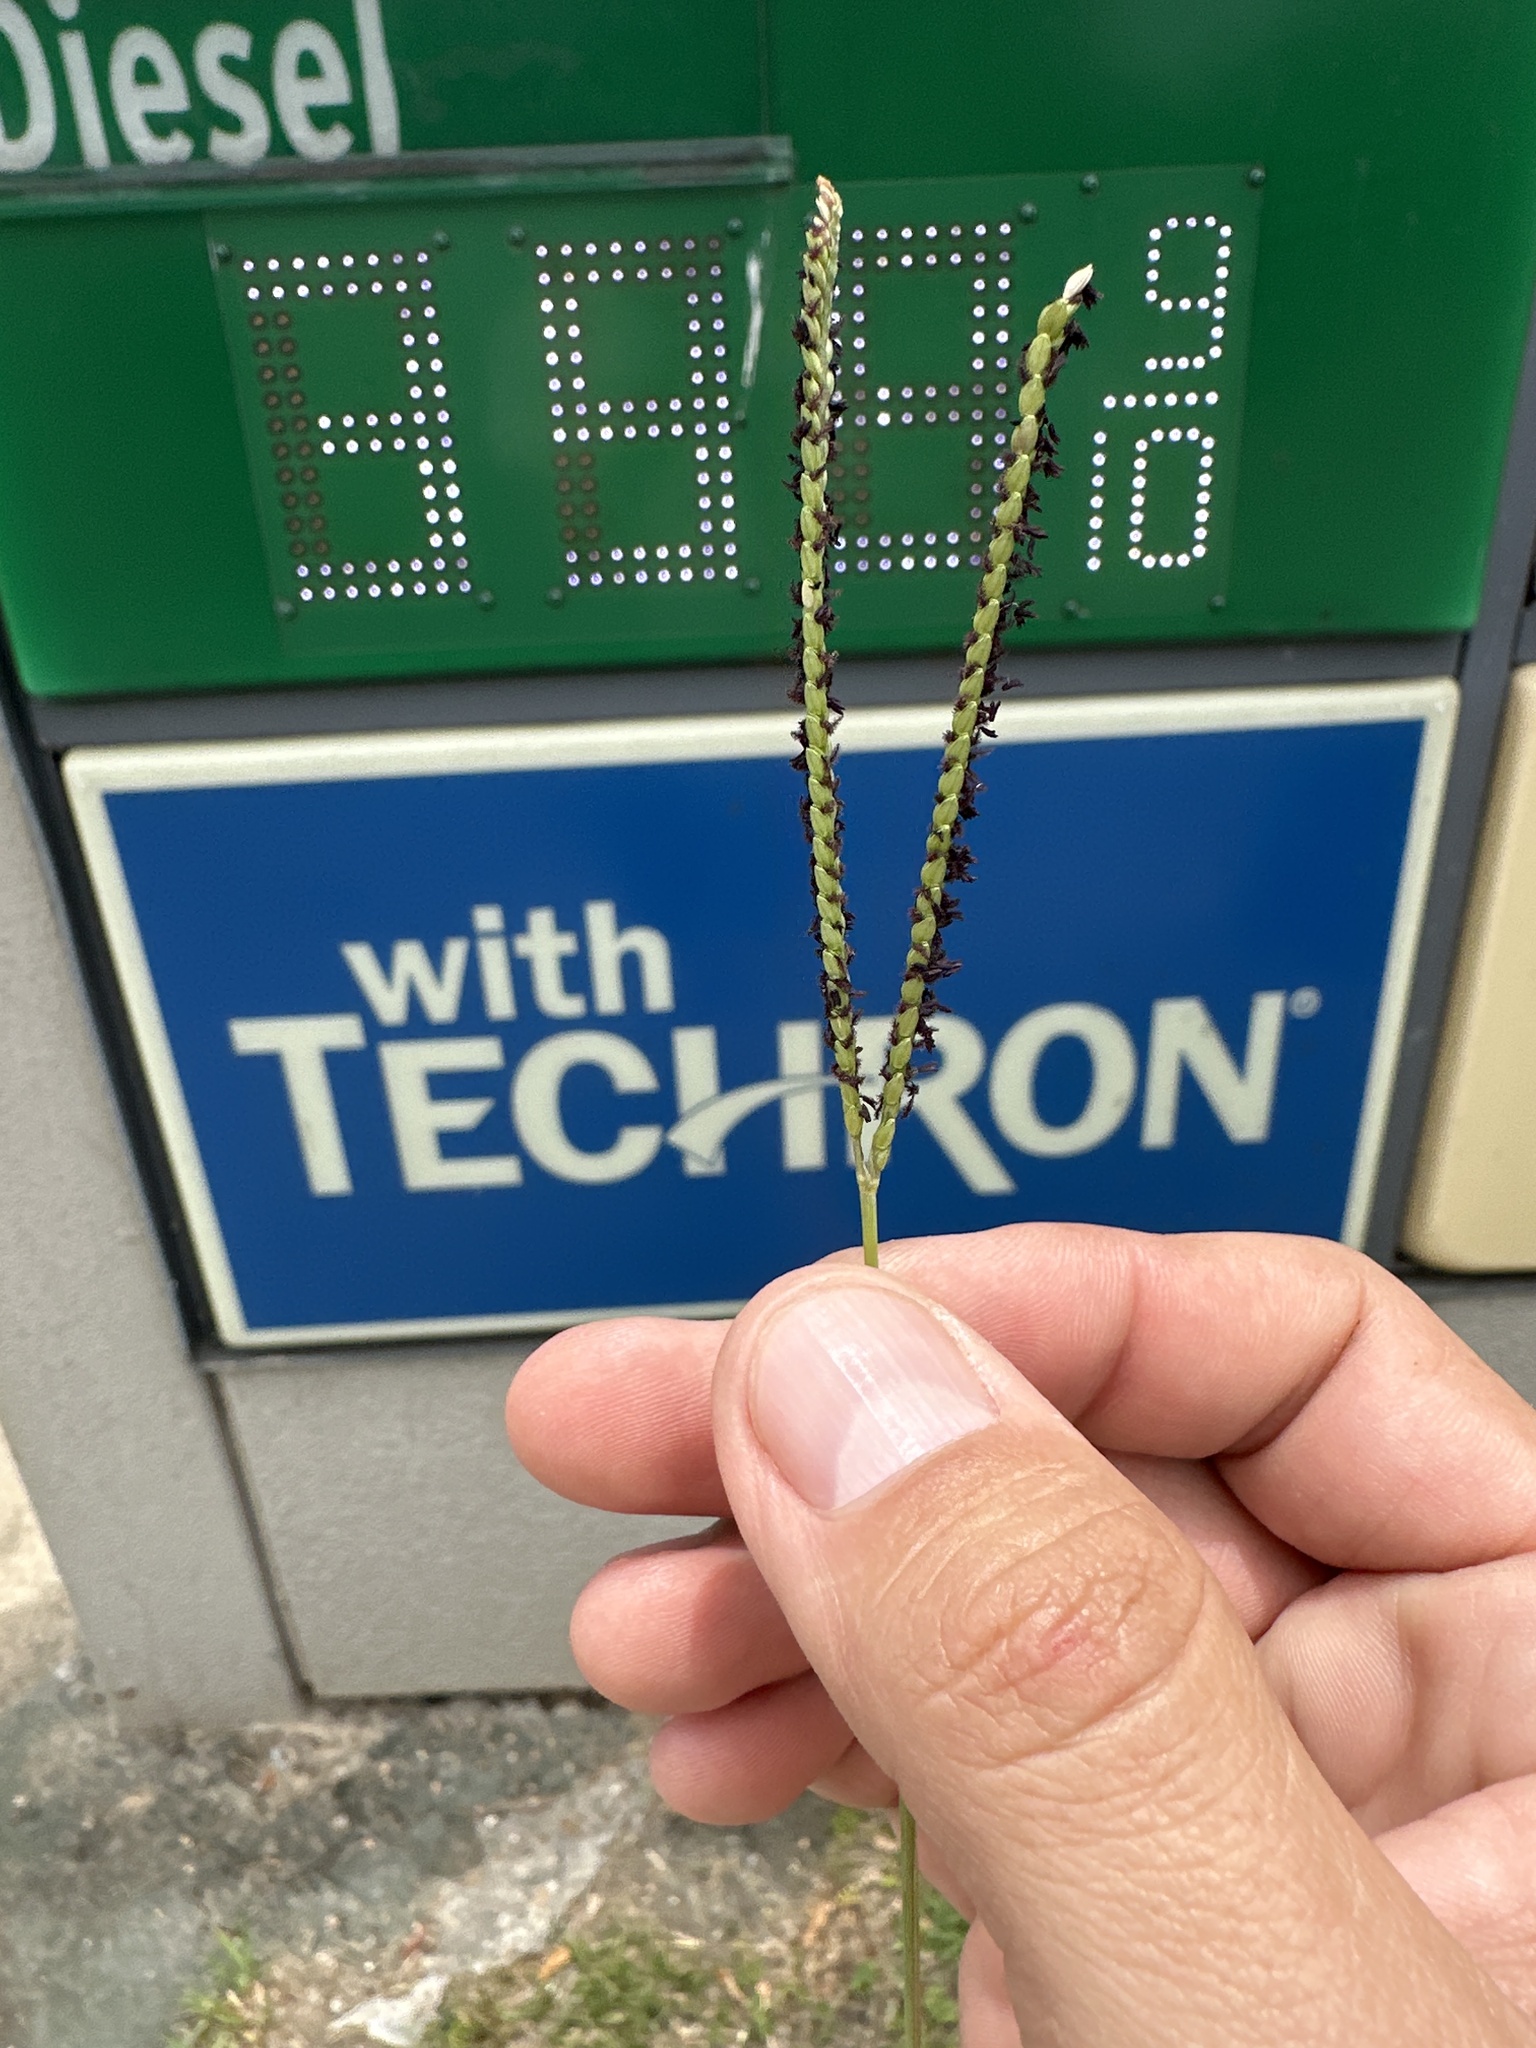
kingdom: Plantae
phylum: Tracheophyta
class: Liliopsida
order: Poales
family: Poaceae
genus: Paspalum
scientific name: Paspalum notatum
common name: Bahiagrass
